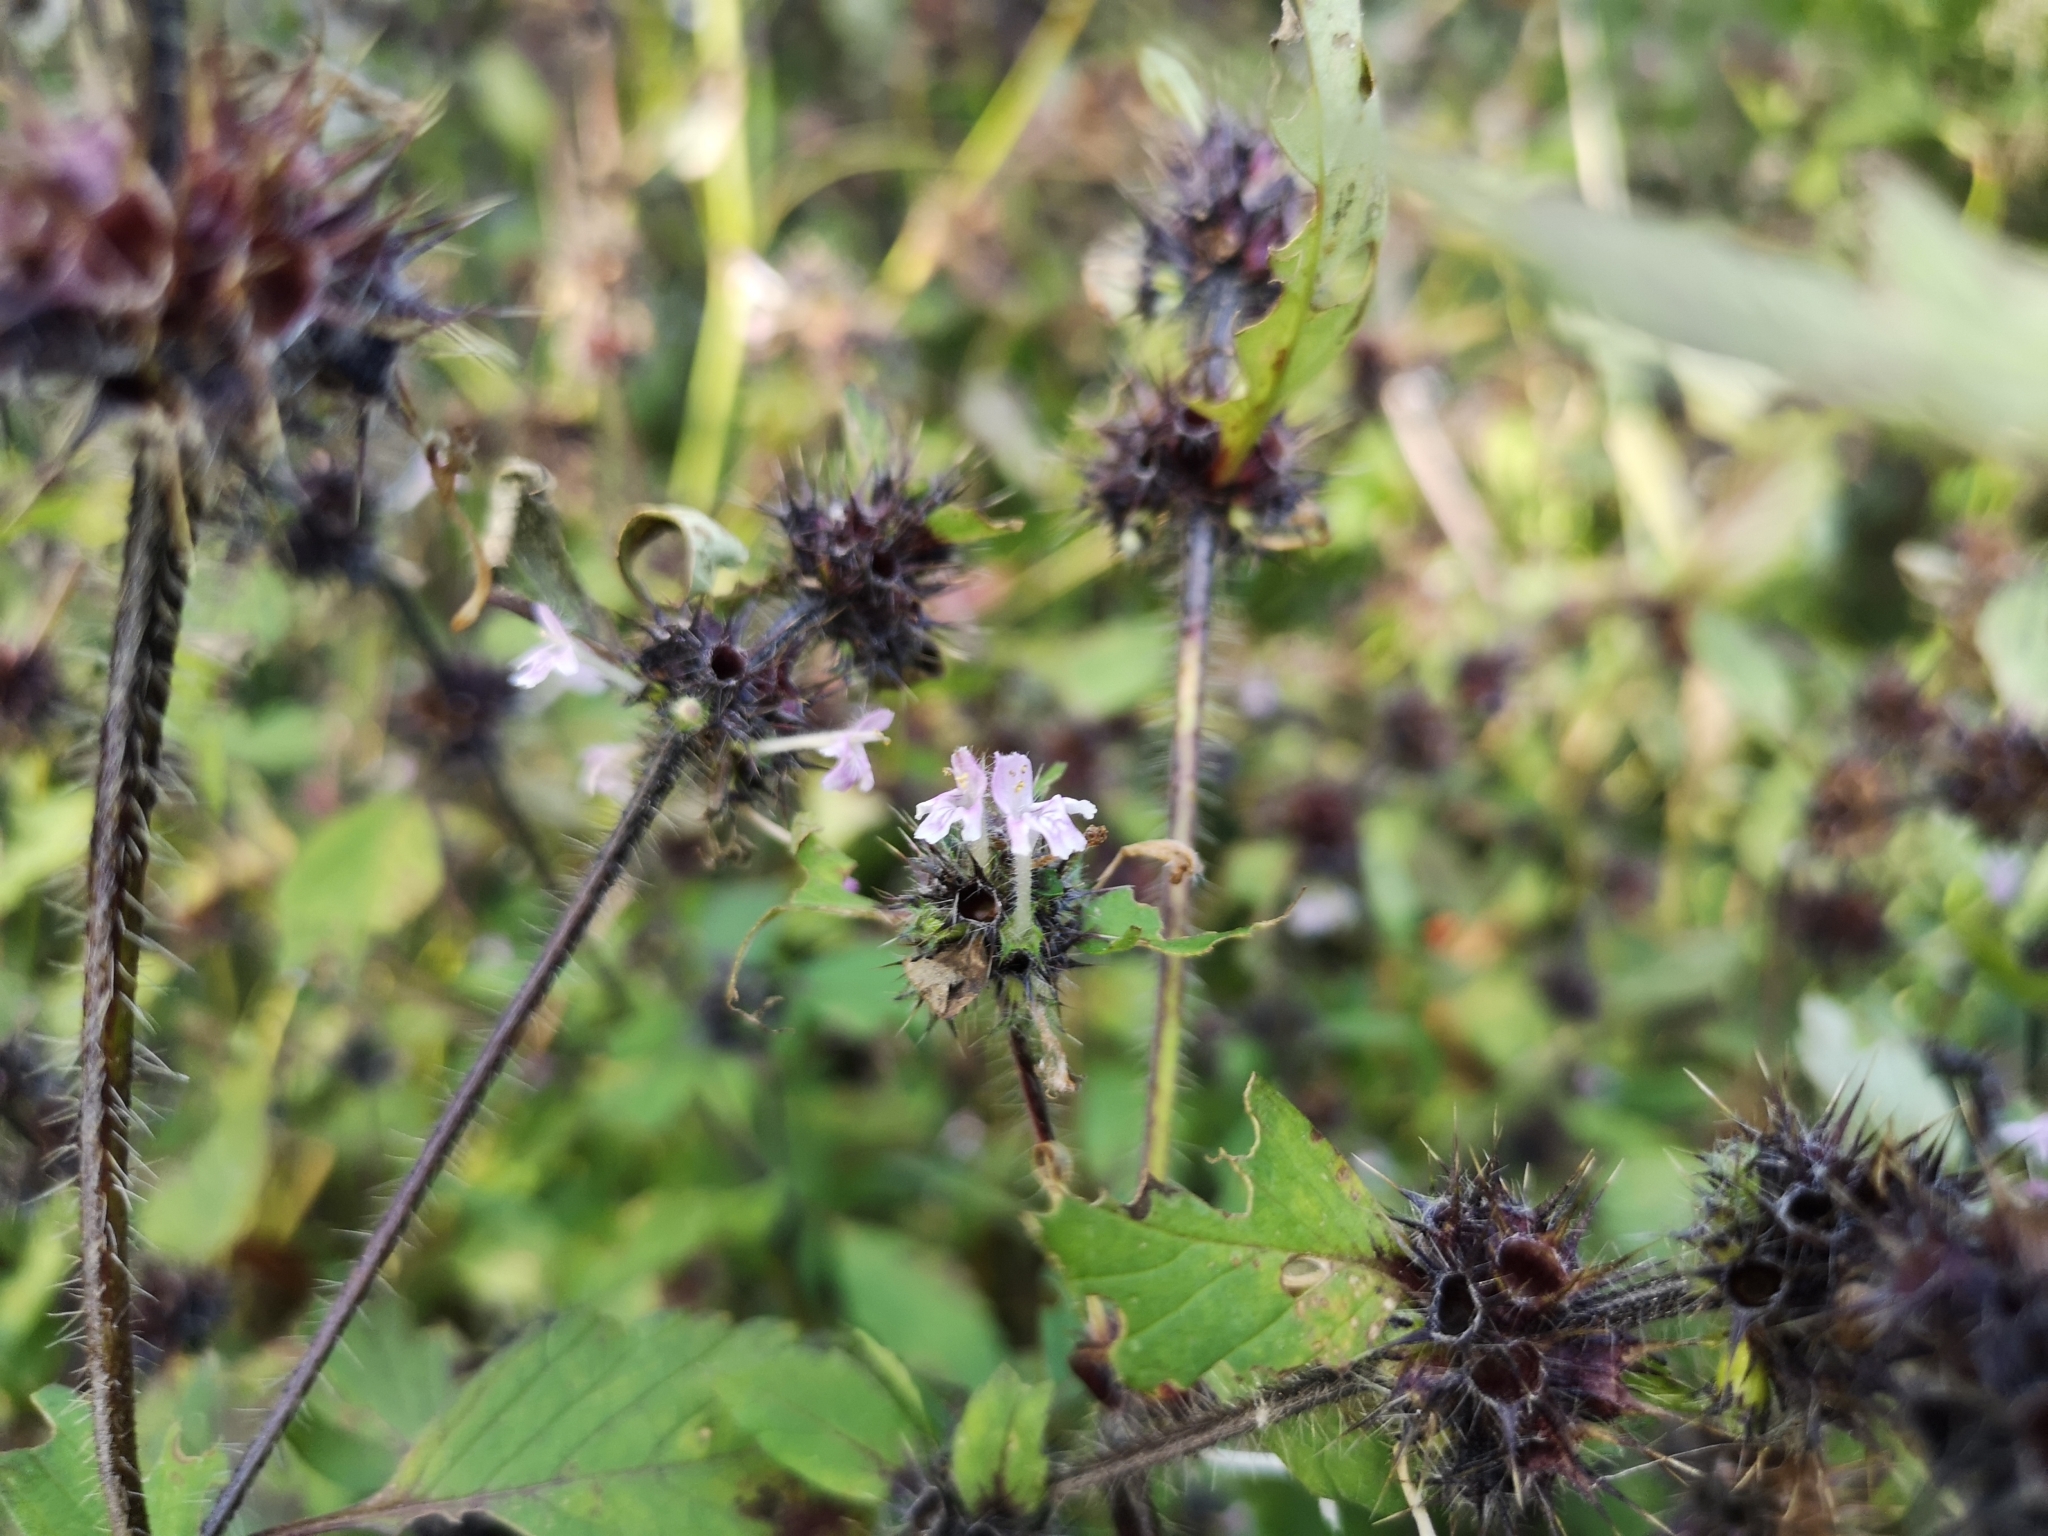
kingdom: Plantae
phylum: Tracheophyta
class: Magnoliopsida
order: Lamiales
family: Lamiaceae
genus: Galeopsis
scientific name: Galeopsis bifida
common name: Bifid hemp-nettle
